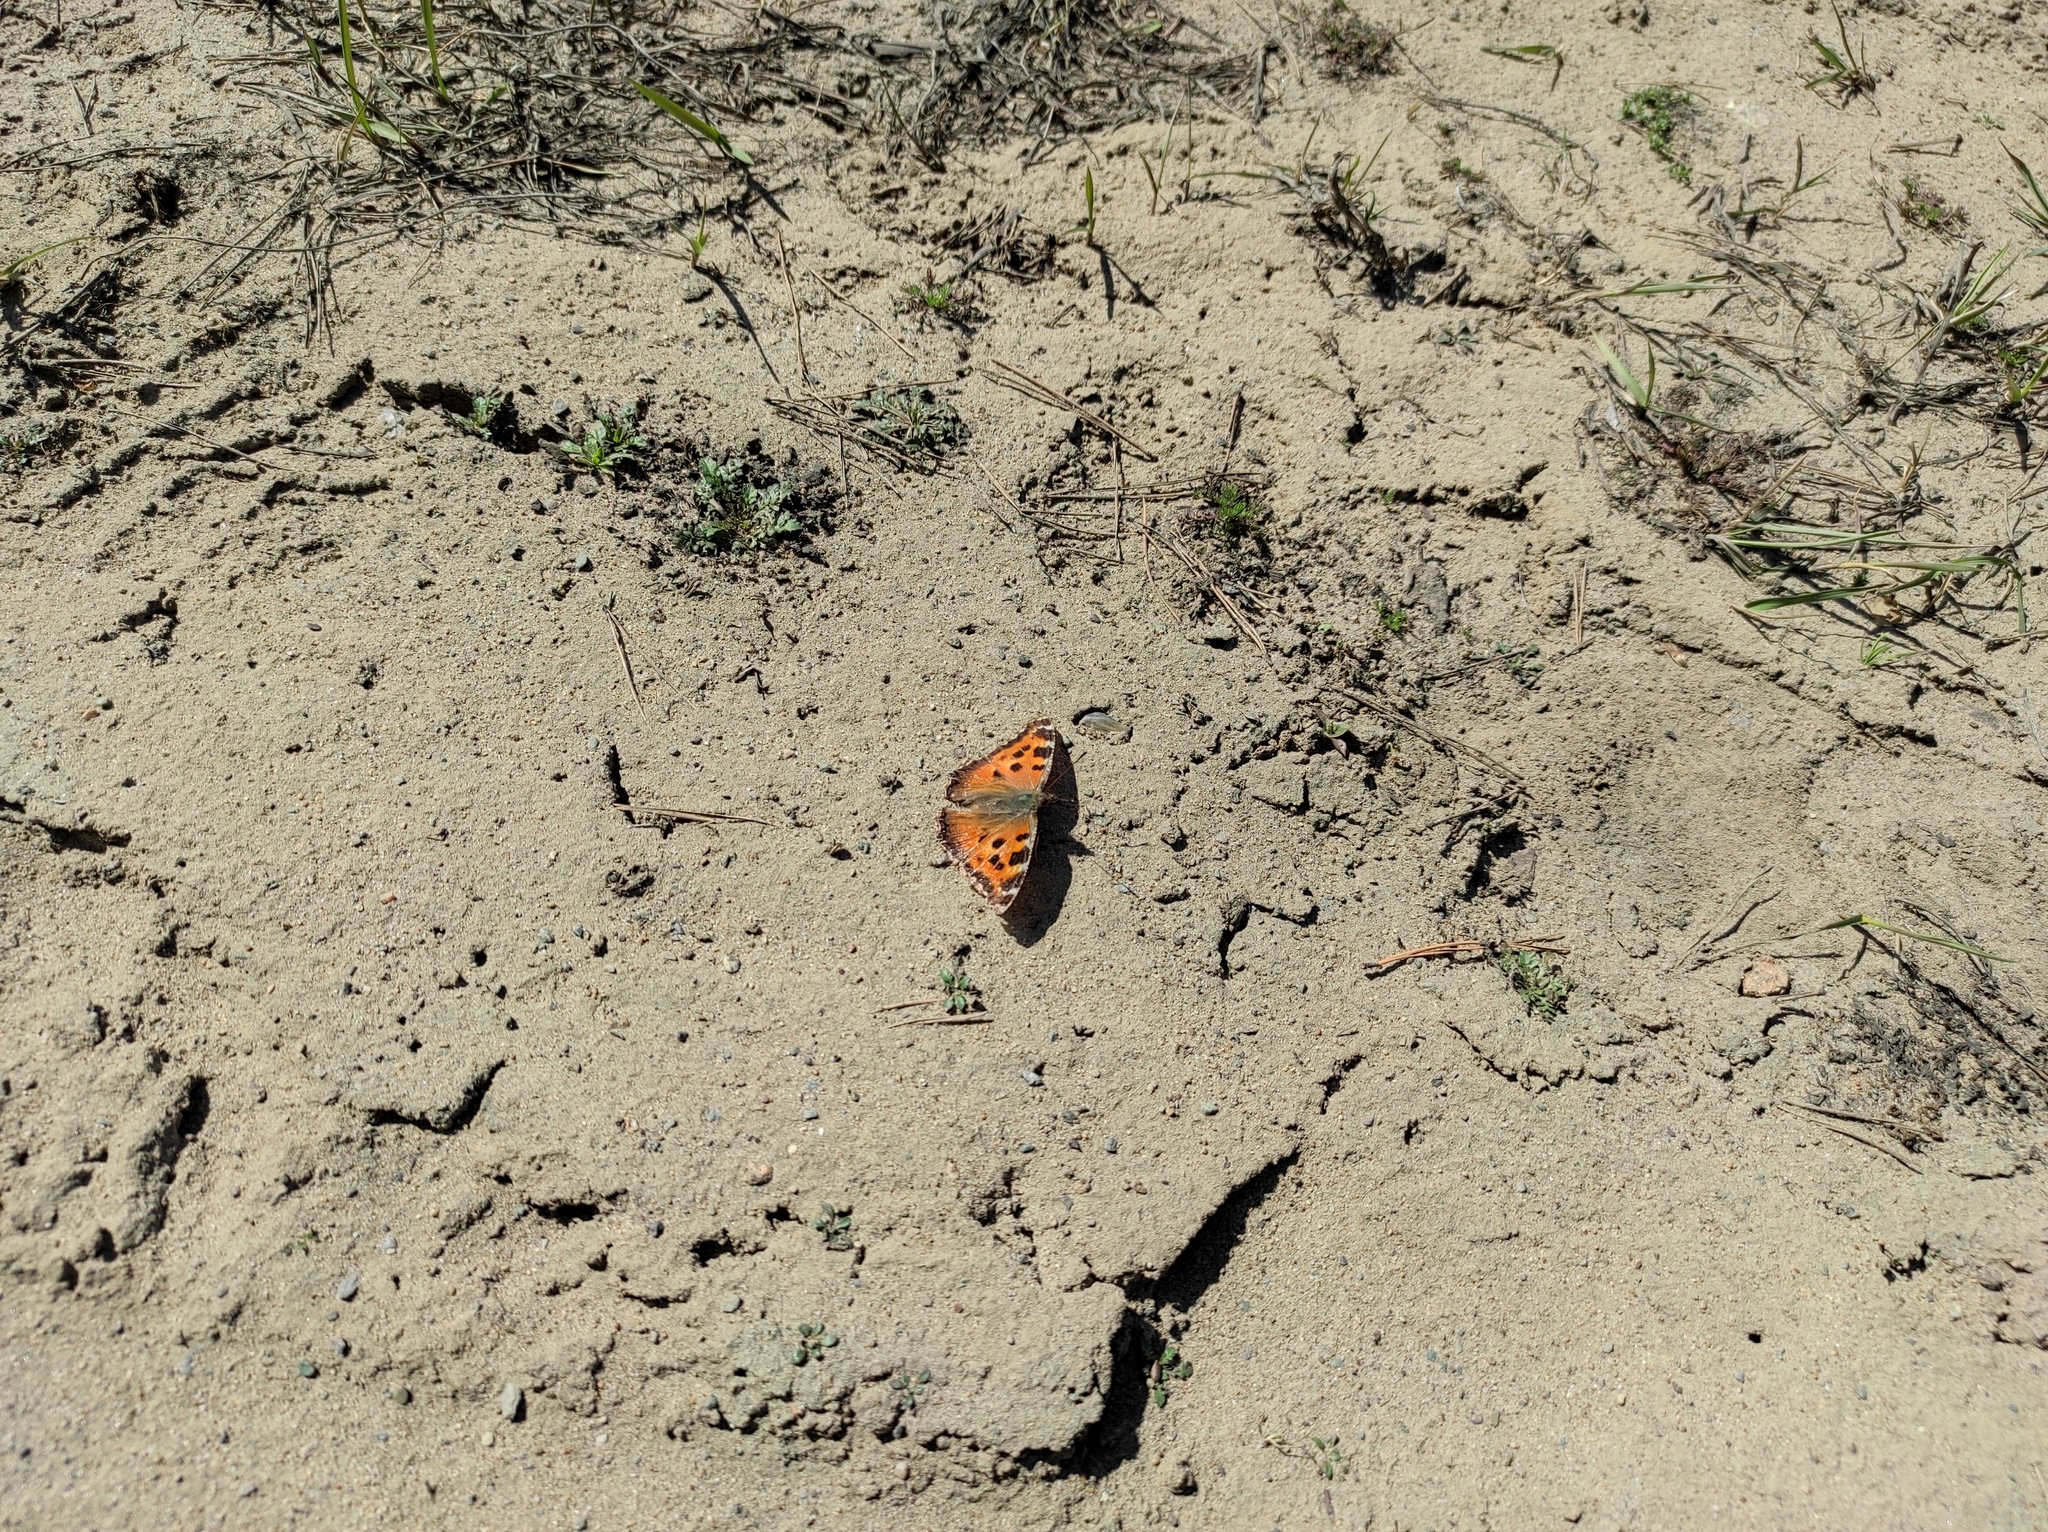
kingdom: Animalia
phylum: Arthropoda
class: Insecta
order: Lepidoptera
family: Nymphalidae
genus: Nymphalis
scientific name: Nymphalis xanthomelas
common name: Scarce tortoiseshell
